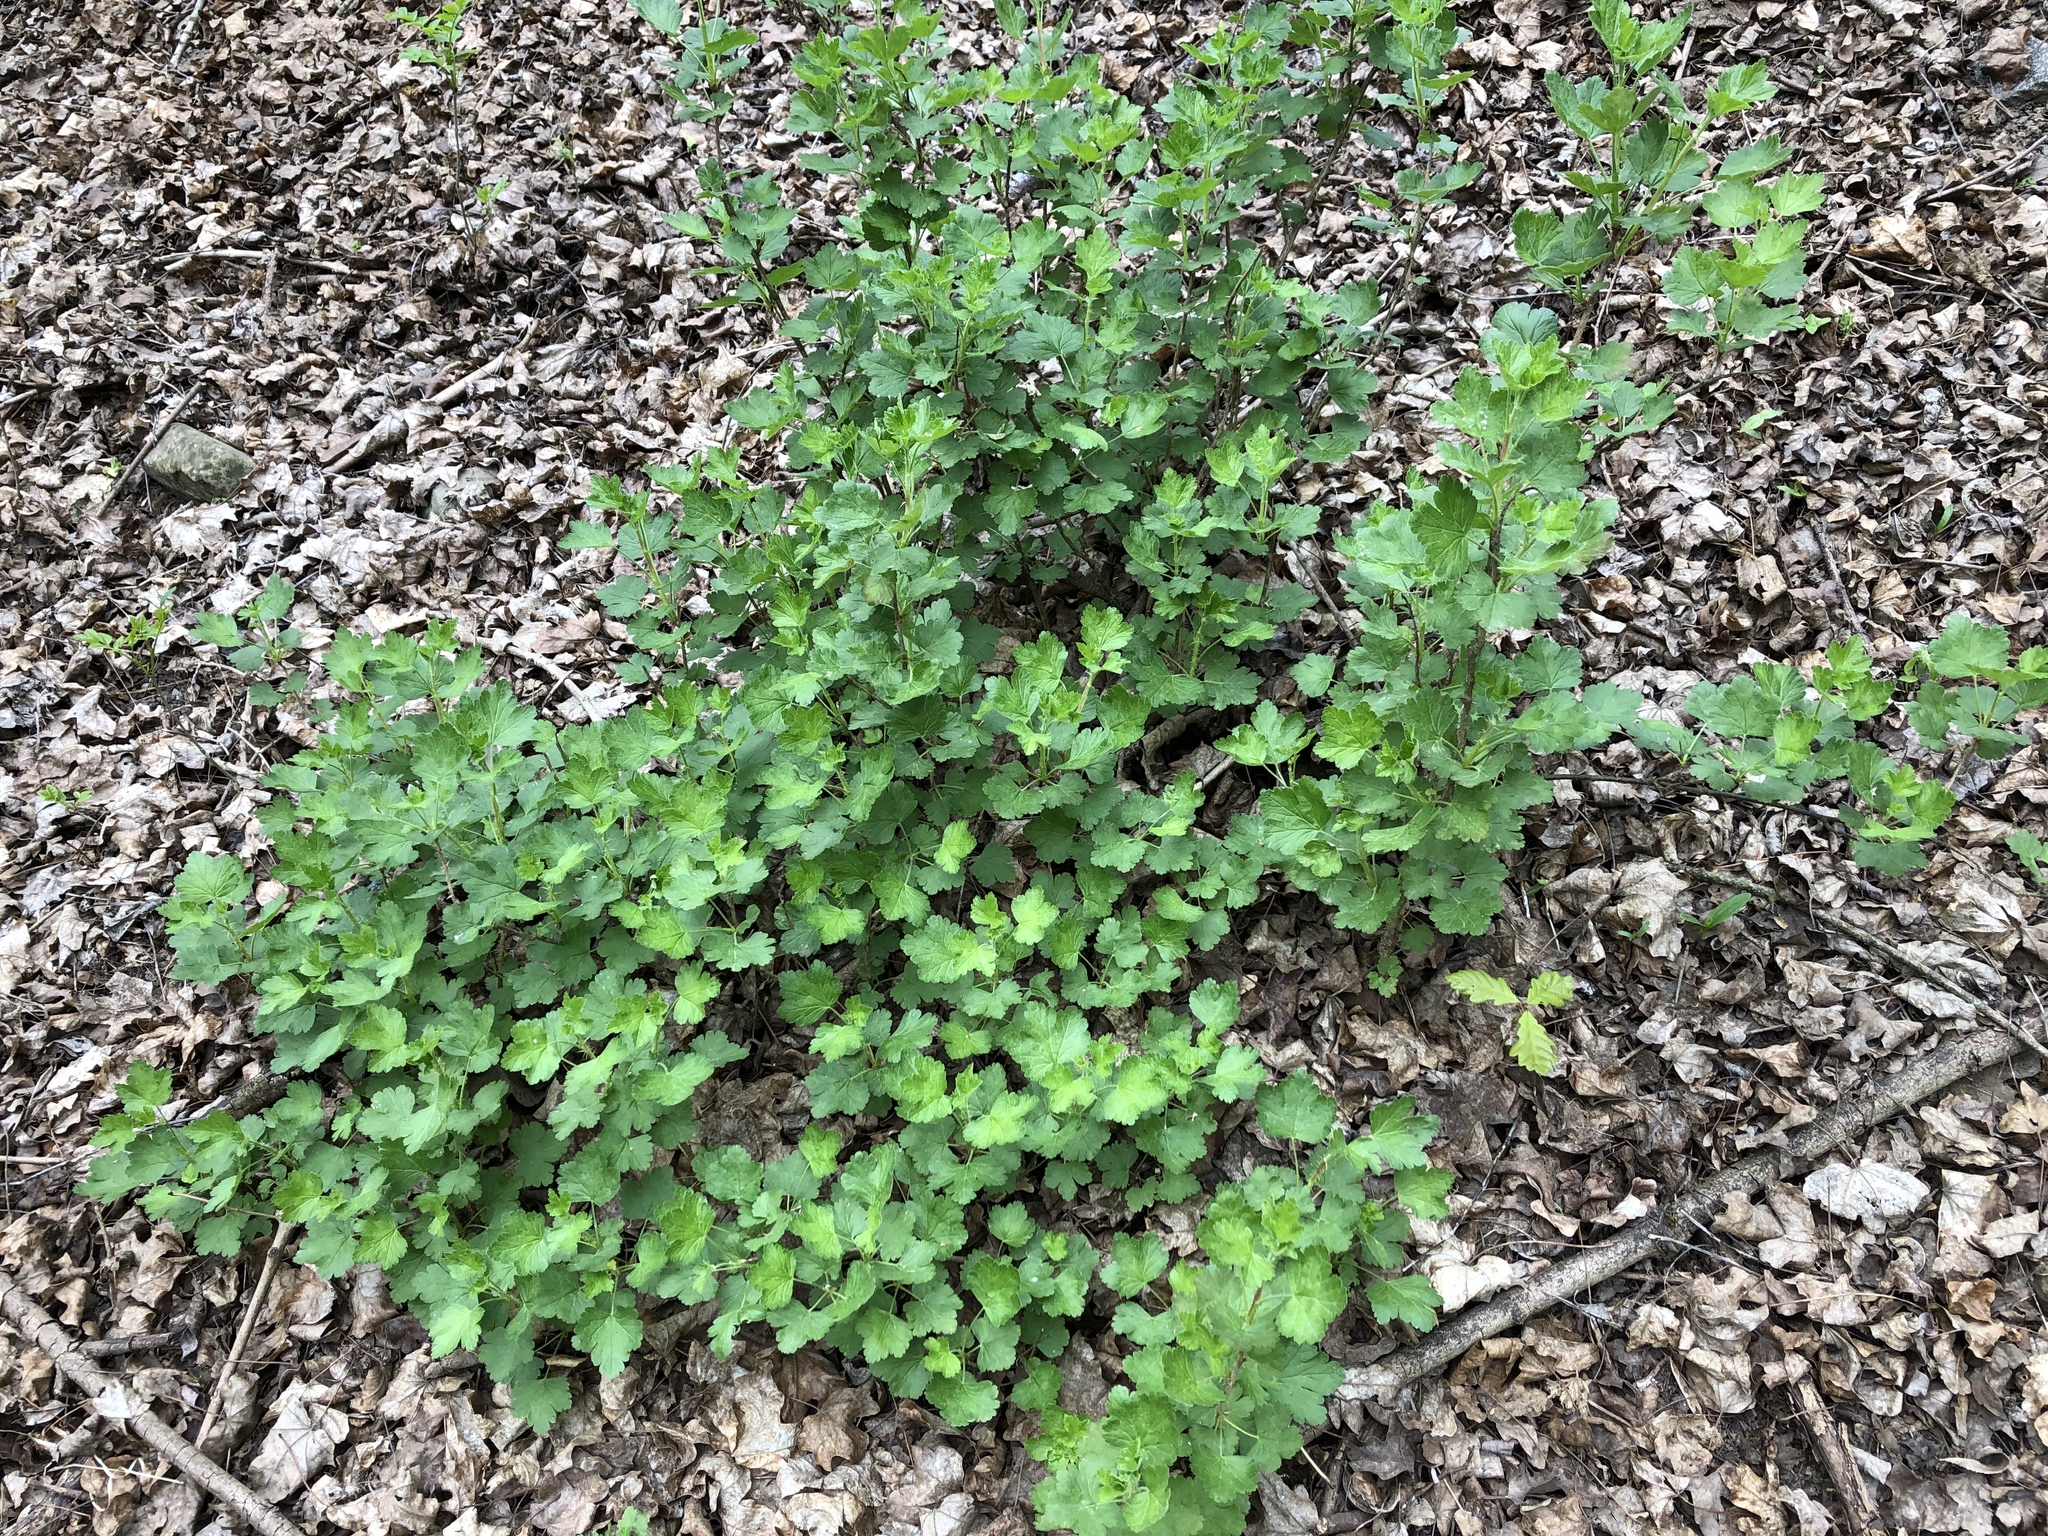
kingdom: Plantae
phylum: Tracheophyta
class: Magnoliopsida
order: Saxifragales
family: Grossulariaceae
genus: Ribes
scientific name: Ribes uva-crispa
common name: Gooseberry
